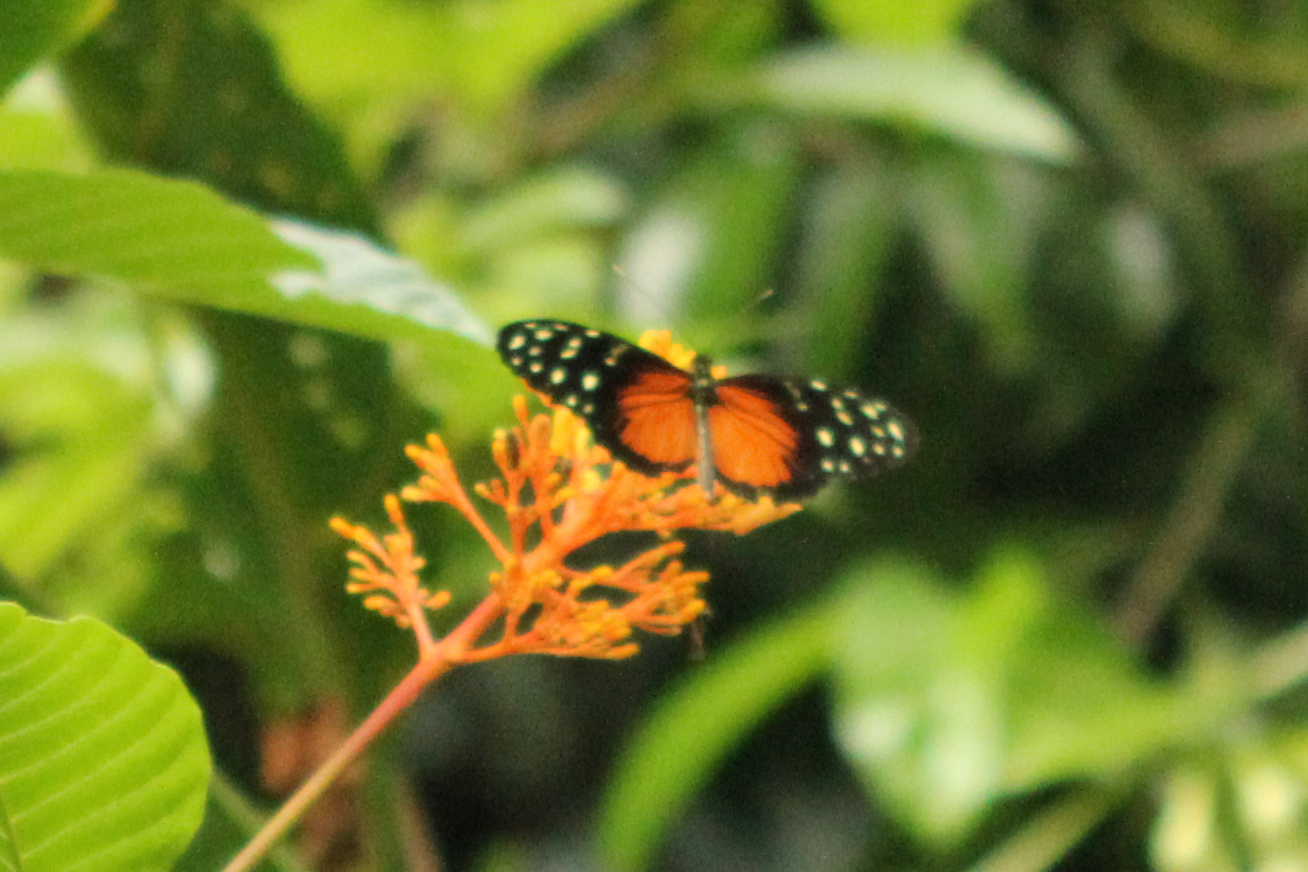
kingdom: Animalia
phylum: Arthropoda
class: Insecta
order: Lepidoptera
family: Nymphalidae
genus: Heliconius
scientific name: Heliconius hecale
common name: Tiger longwing
